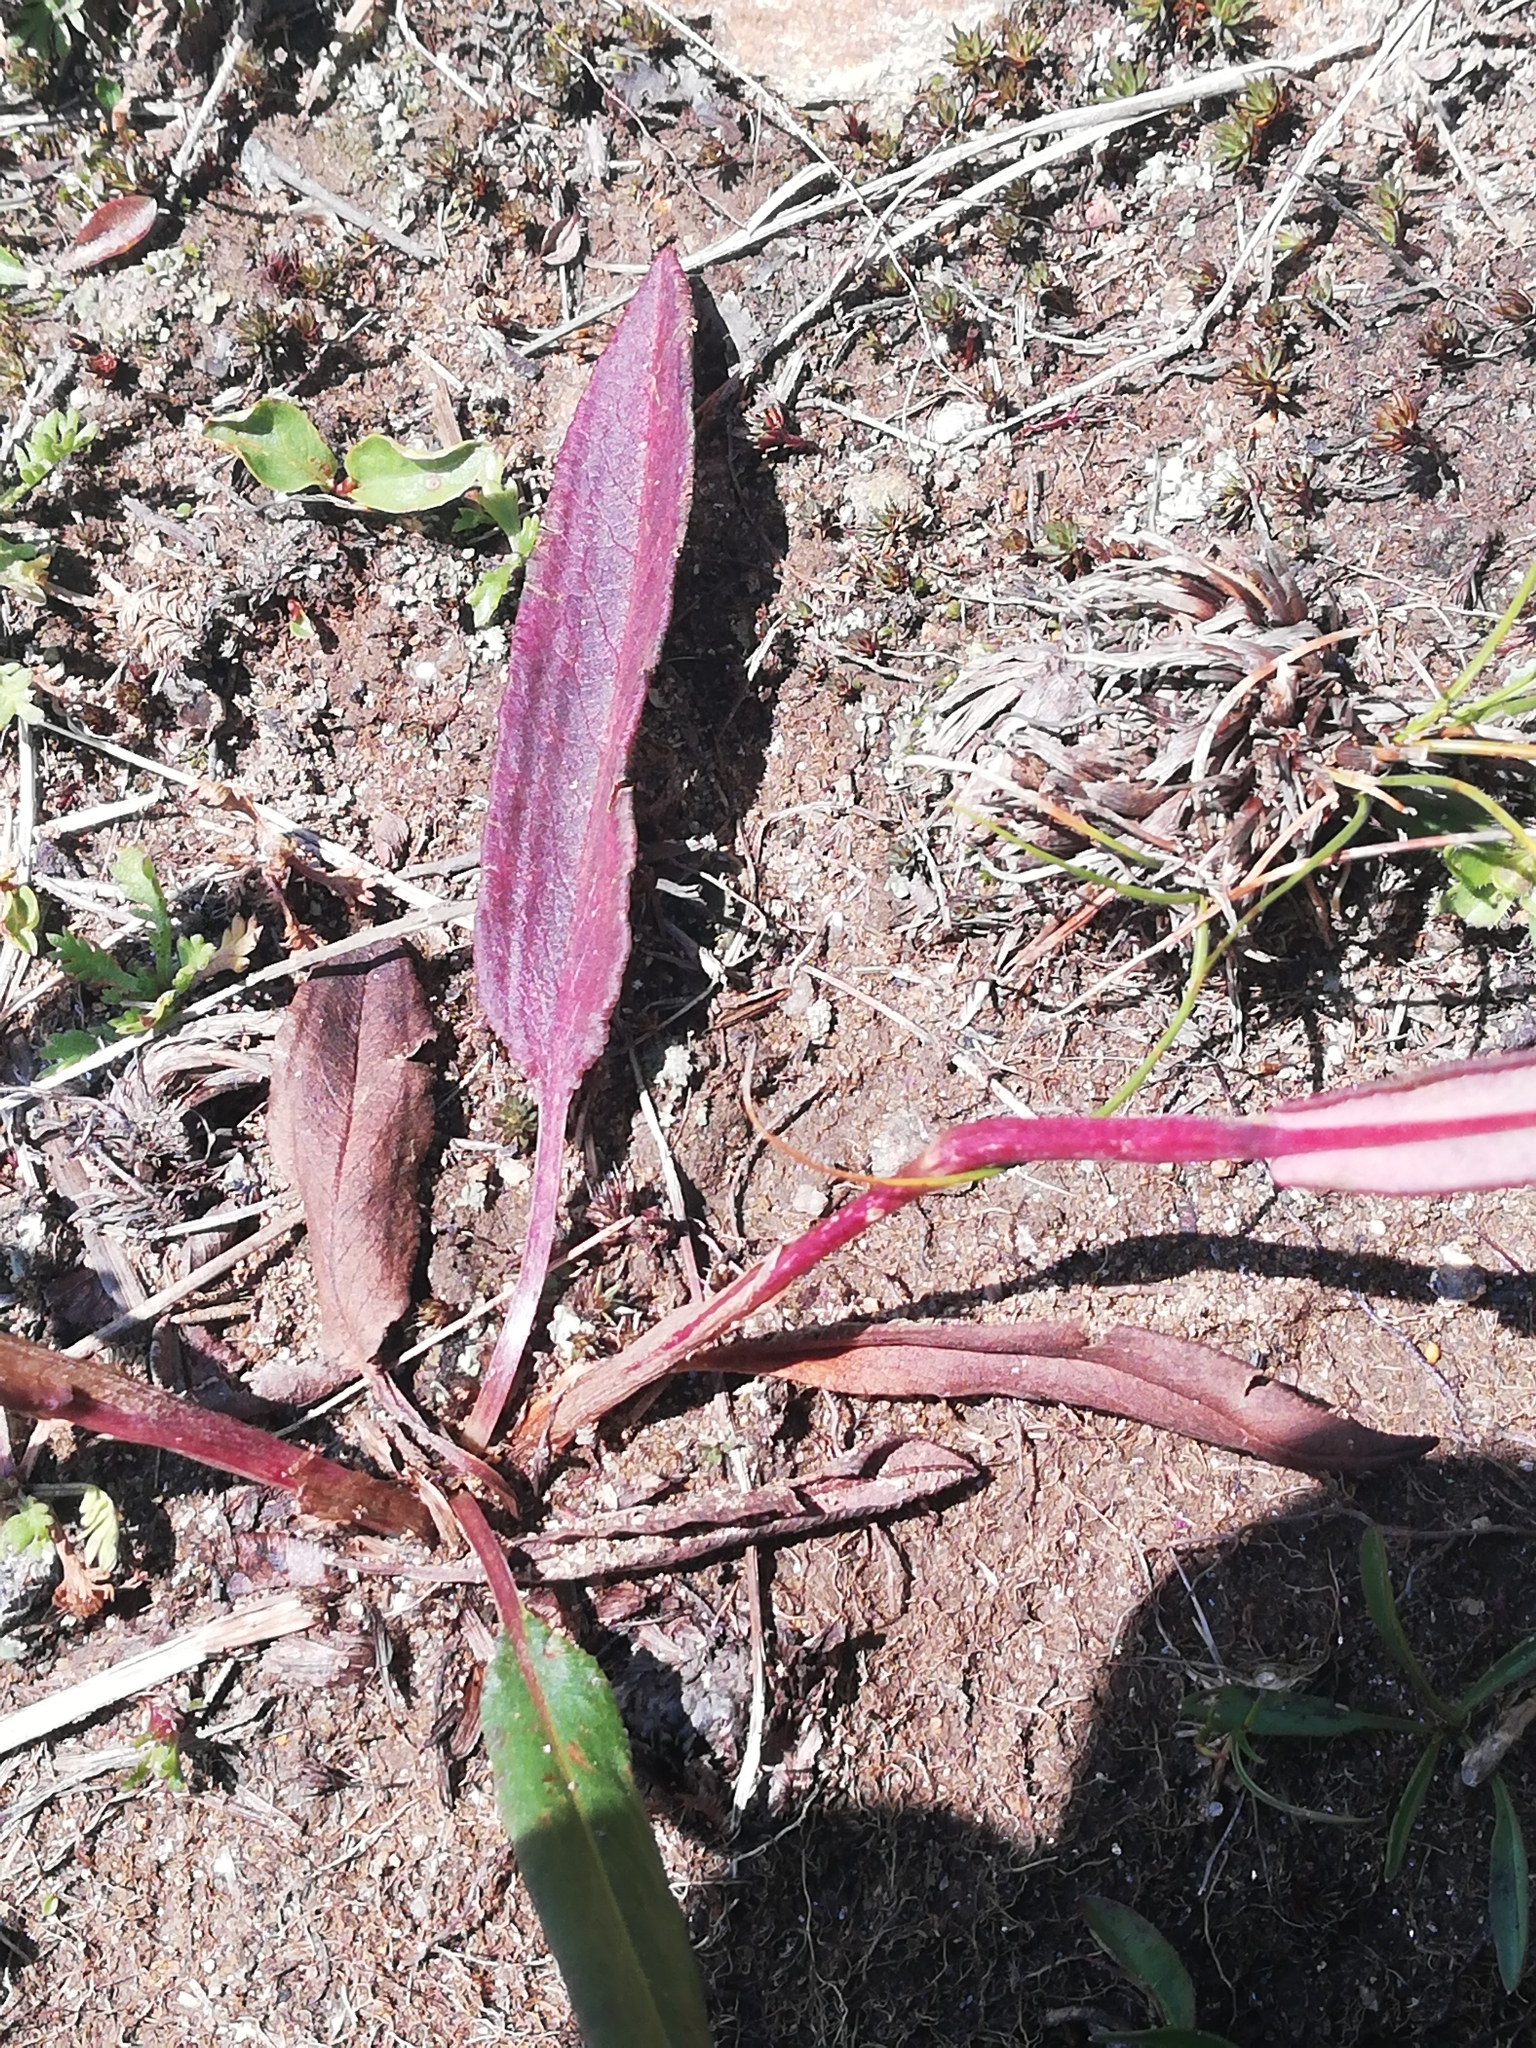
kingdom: Plantae
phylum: Tracheophyta
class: Magnoliopsida
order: Caryophyllales
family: Polygonaceae
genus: Bistorta
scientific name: Bistorta vivipara
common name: Alpine bistort
